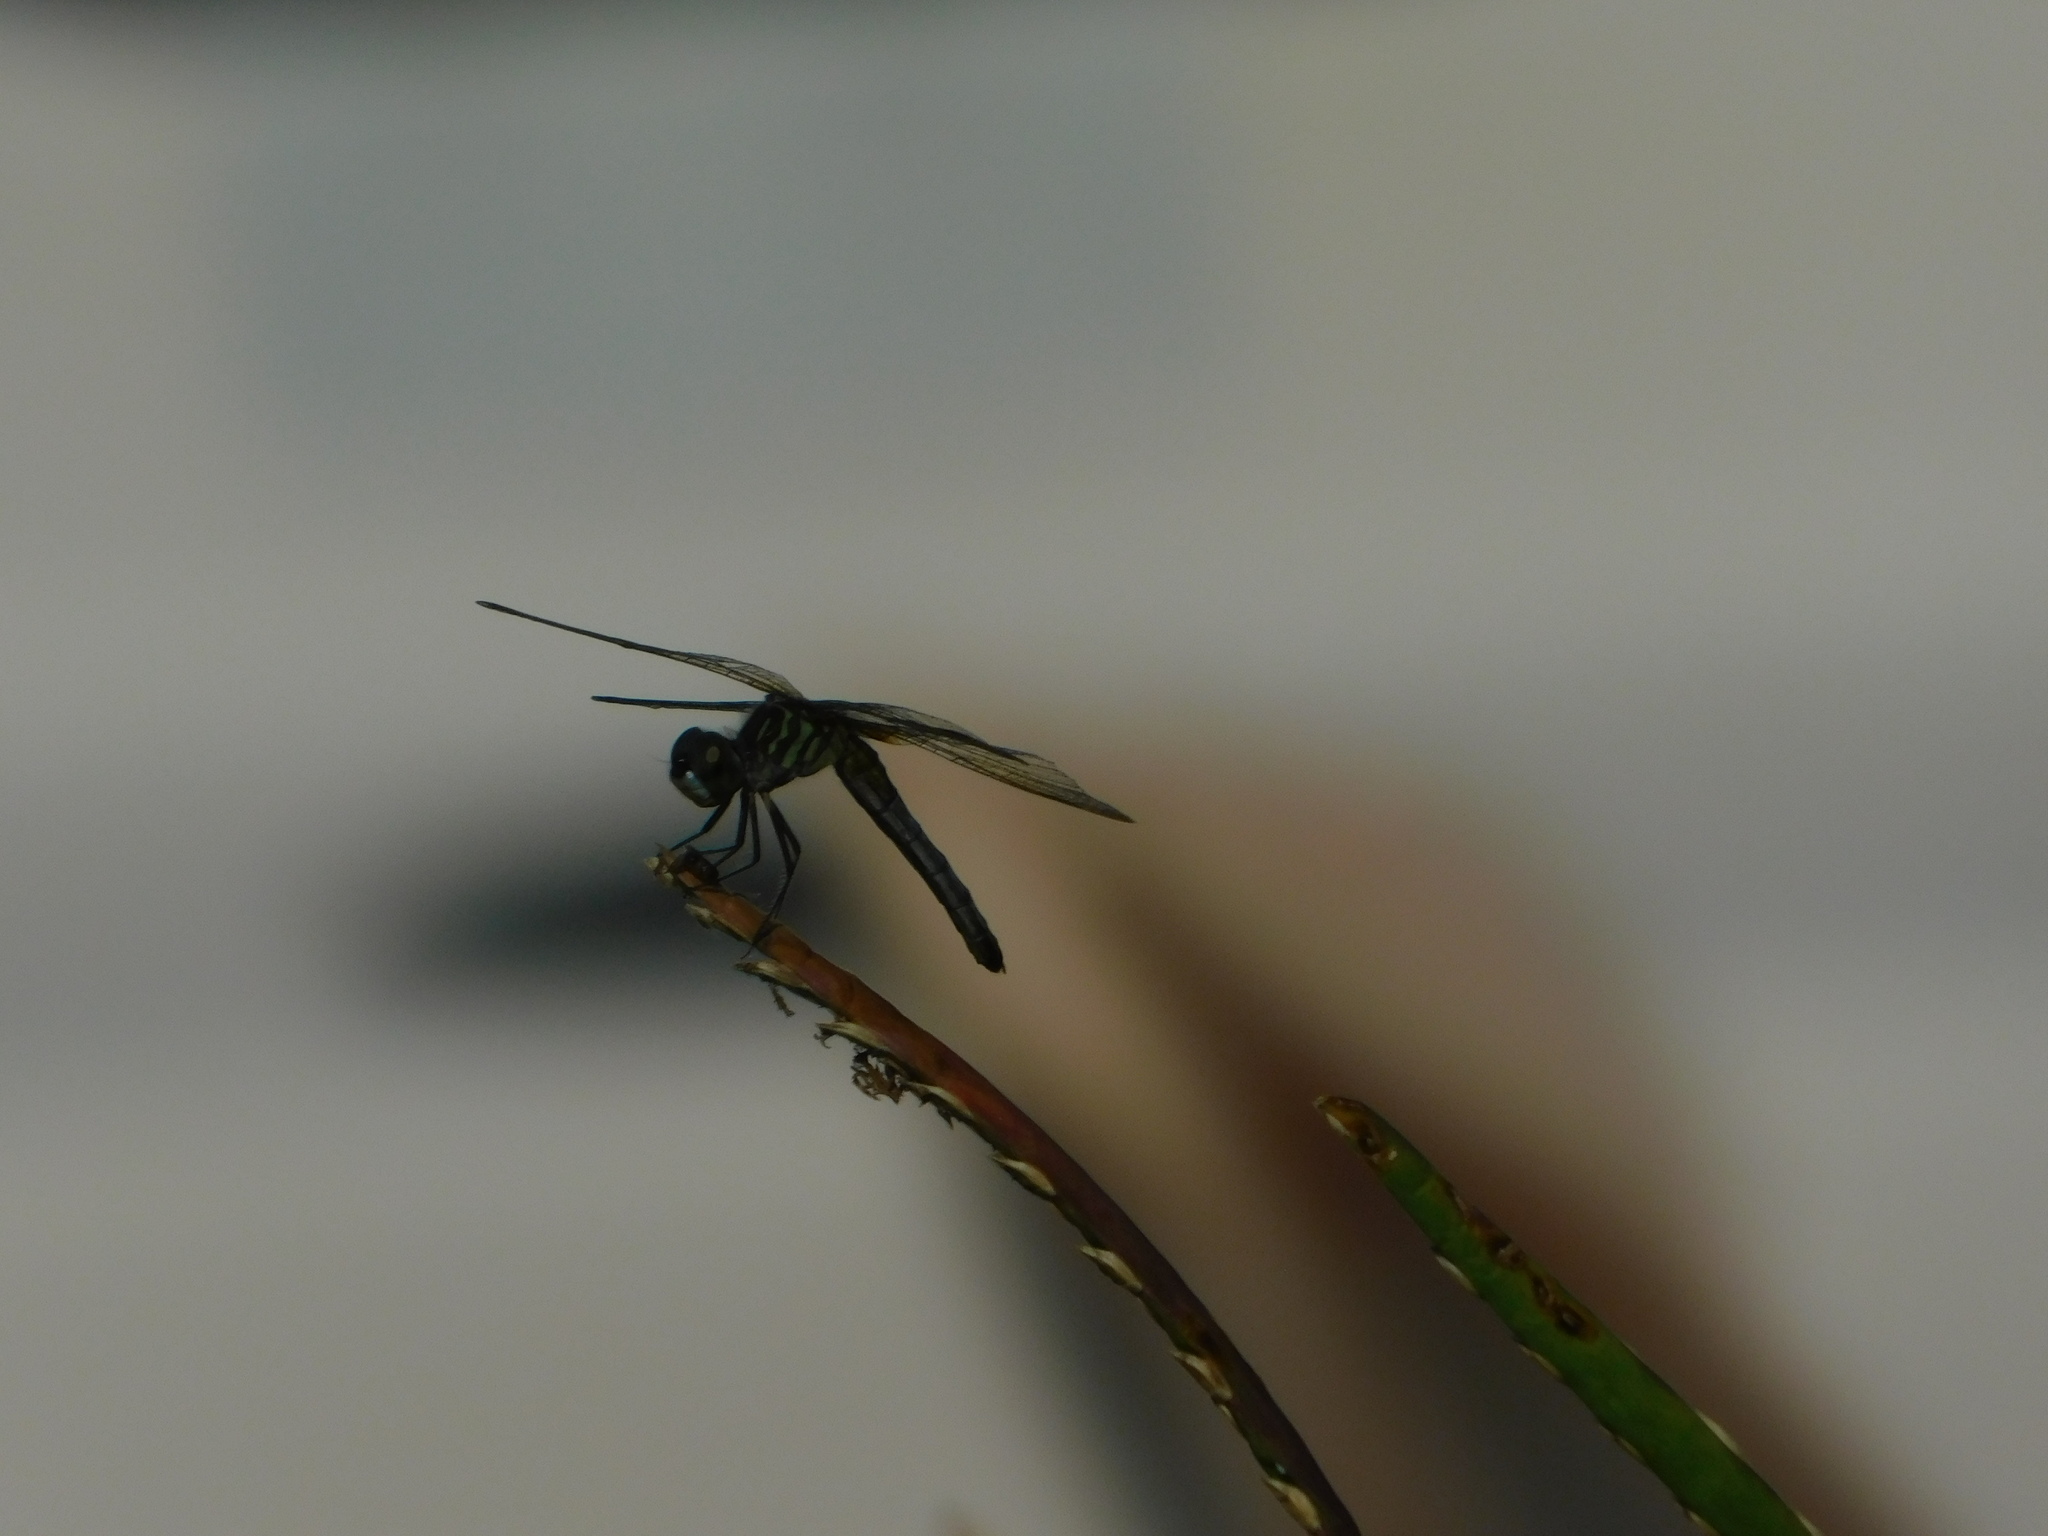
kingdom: Animalia
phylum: Arthropoda
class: Insecta
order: Odonata
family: Libellulidae
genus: Pachydiplax
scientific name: Pachydiplax longipennis
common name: Blue dasher
